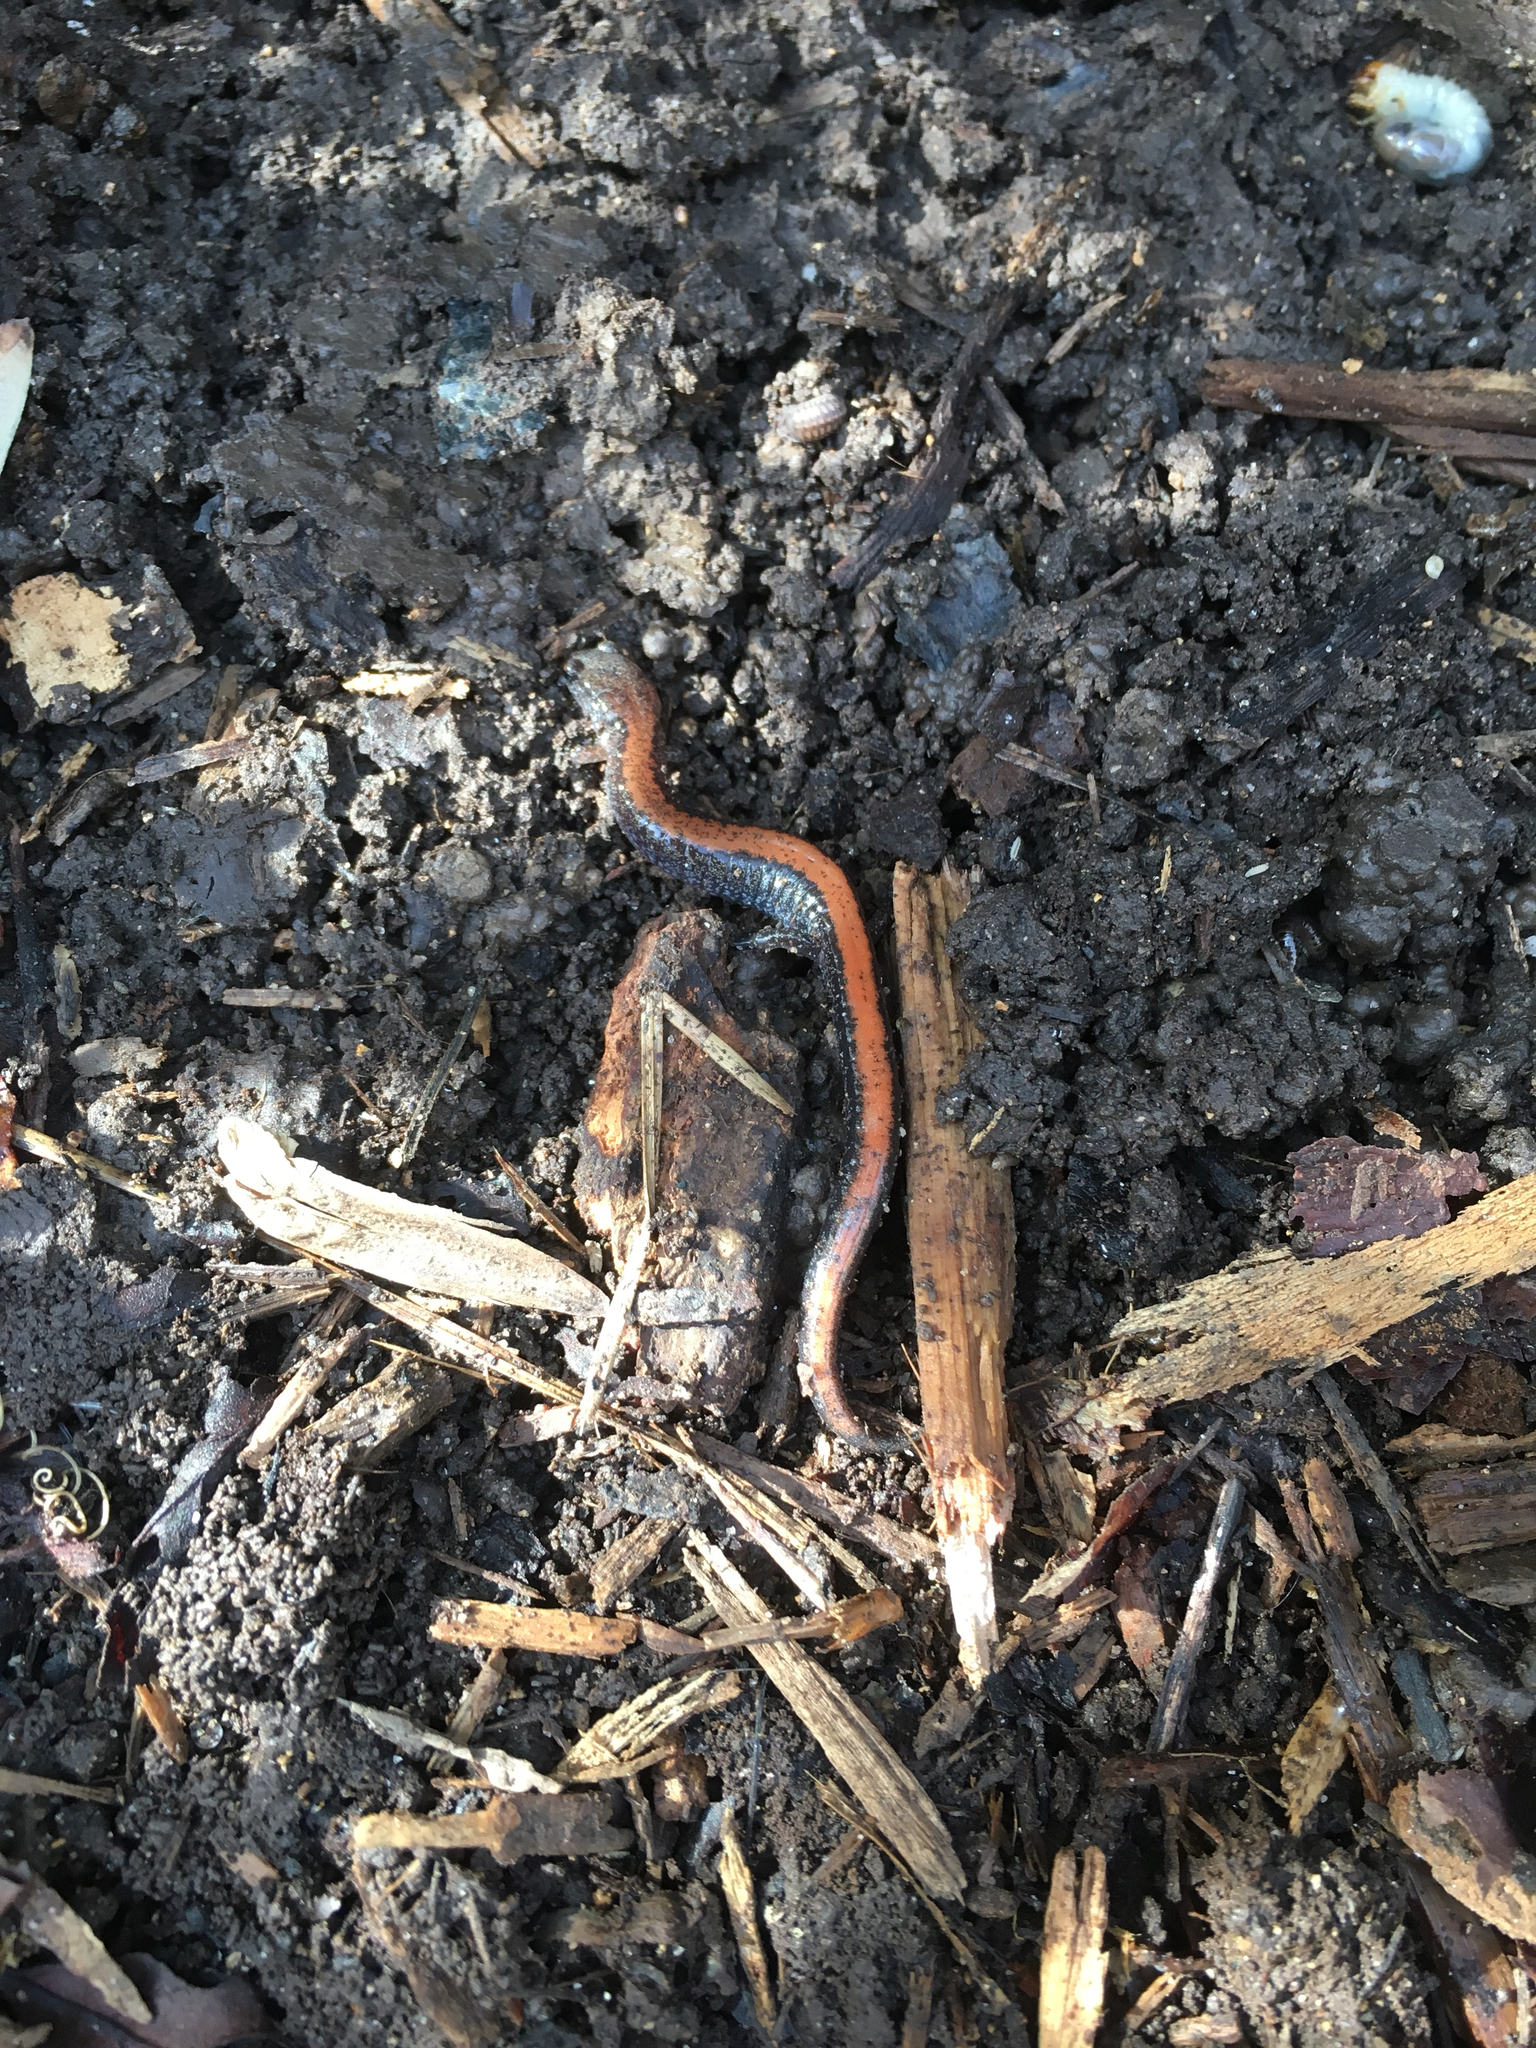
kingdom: Animalia
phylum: Chordata
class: Amphibia
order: Caudata
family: Plethodontidae
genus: Plethodon
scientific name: Plethodon cinereus
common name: Redback salamander
